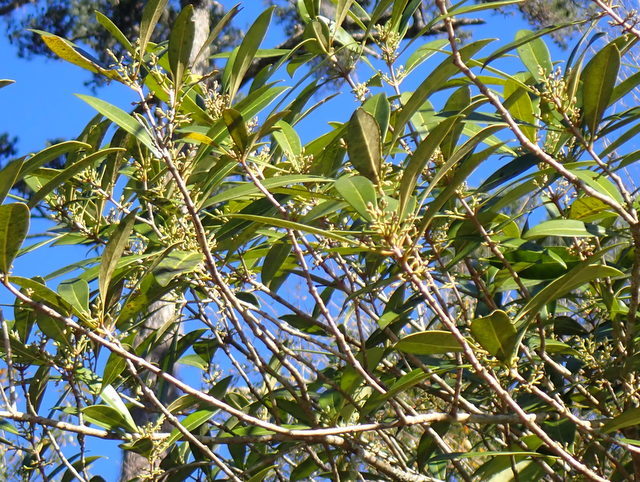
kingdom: Plantae
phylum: Tracheophyta
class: Magnoliopsida
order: Lamiales
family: Oleaceae
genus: Cartrema
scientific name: Cartrema americana
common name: Devilwood
